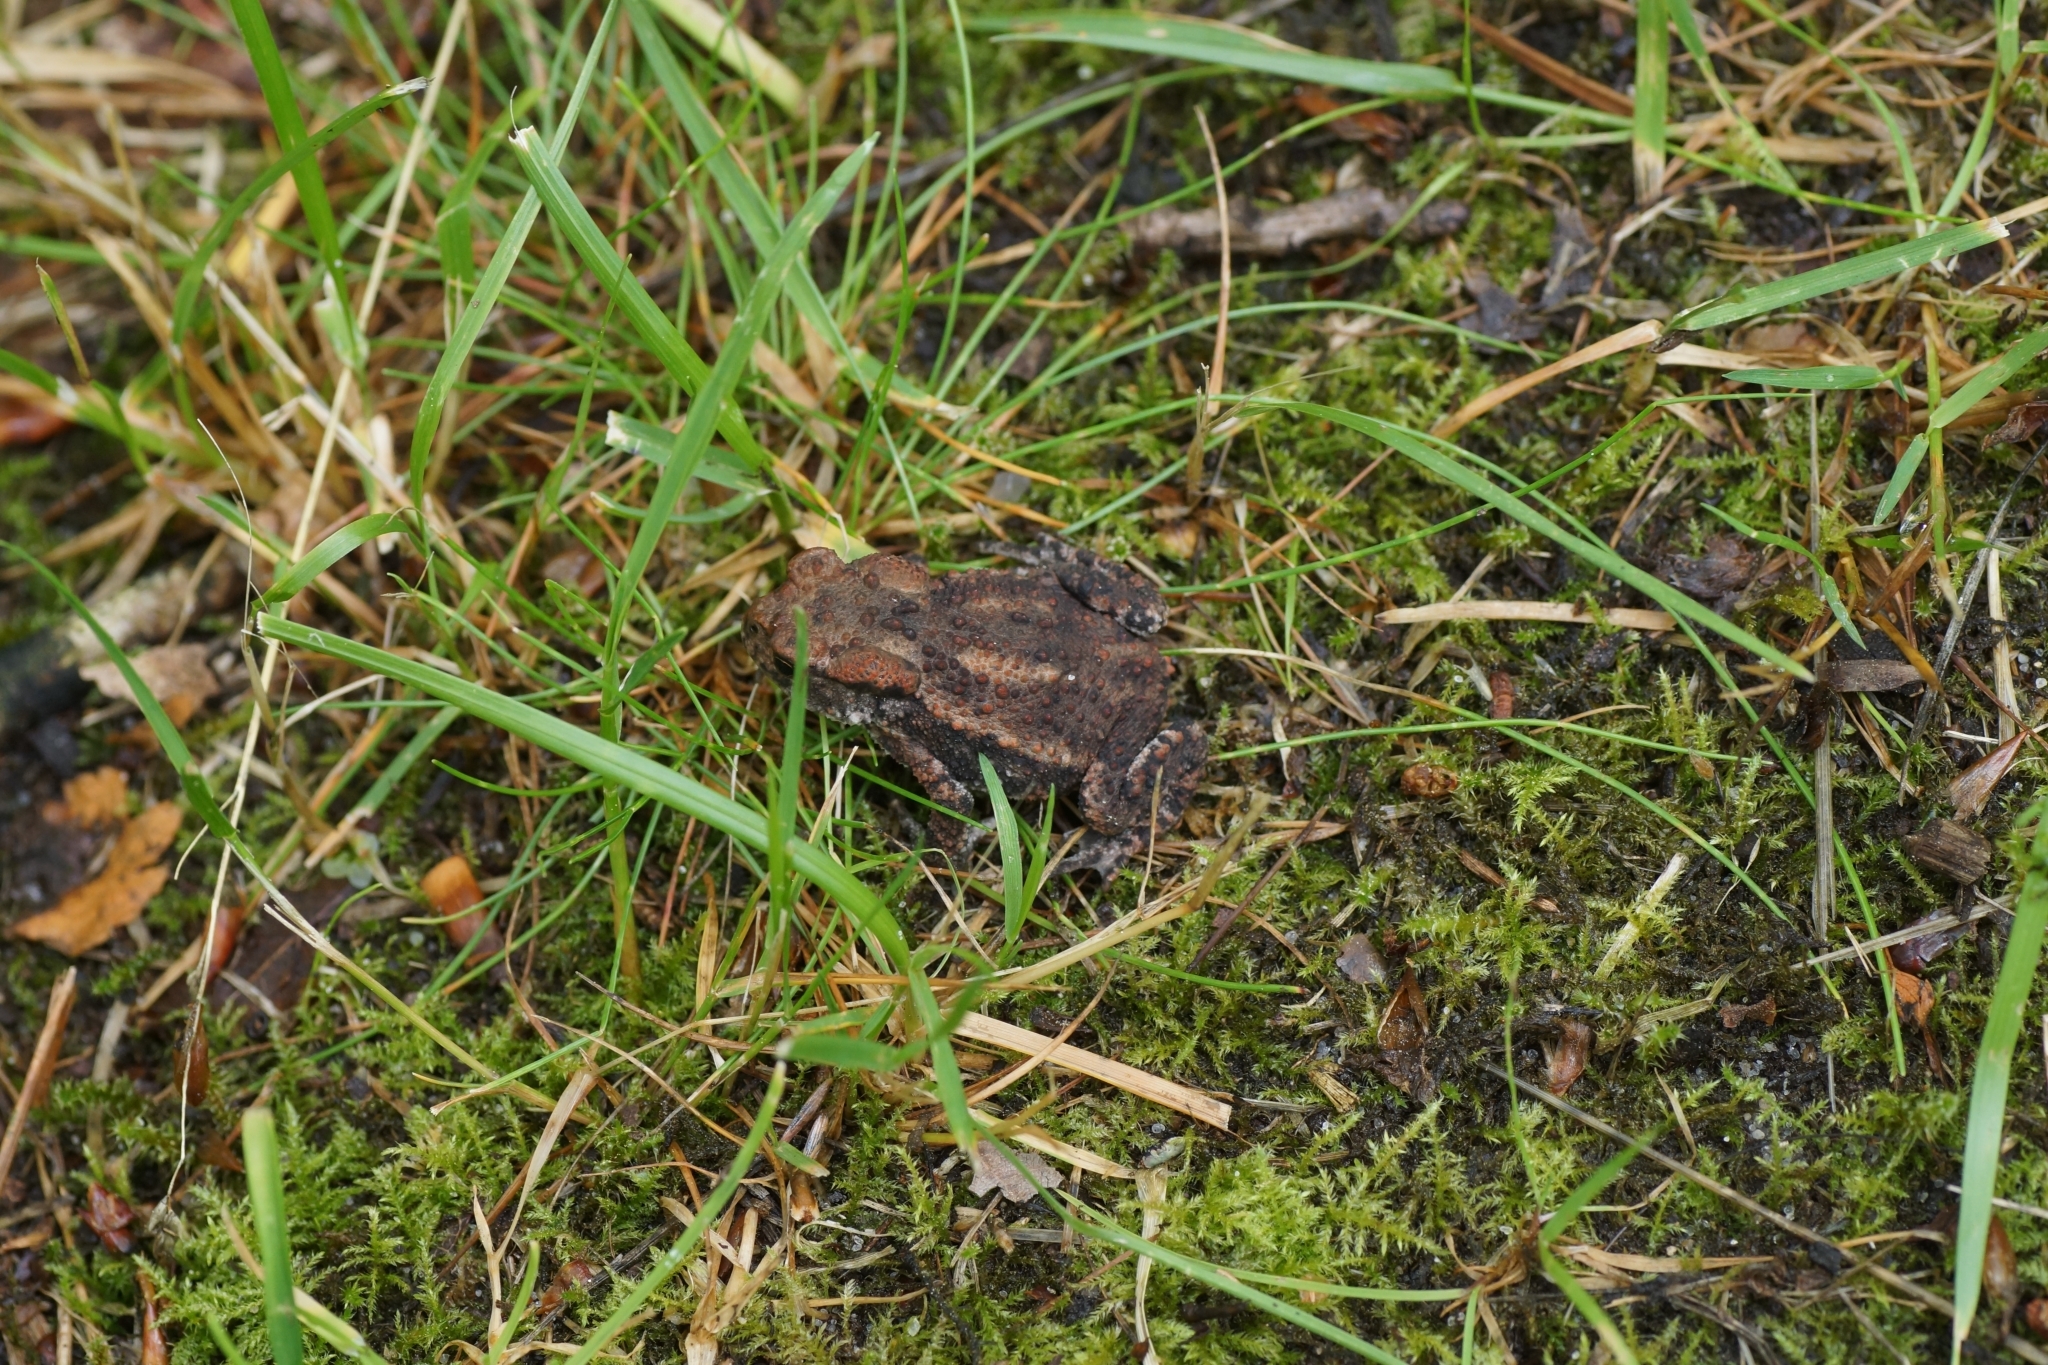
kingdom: Animalia
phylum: Chordata
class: Amphibia
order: Anura
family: Bufonidae
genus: Bufo
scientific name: Bufo bufo
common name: Common toad
